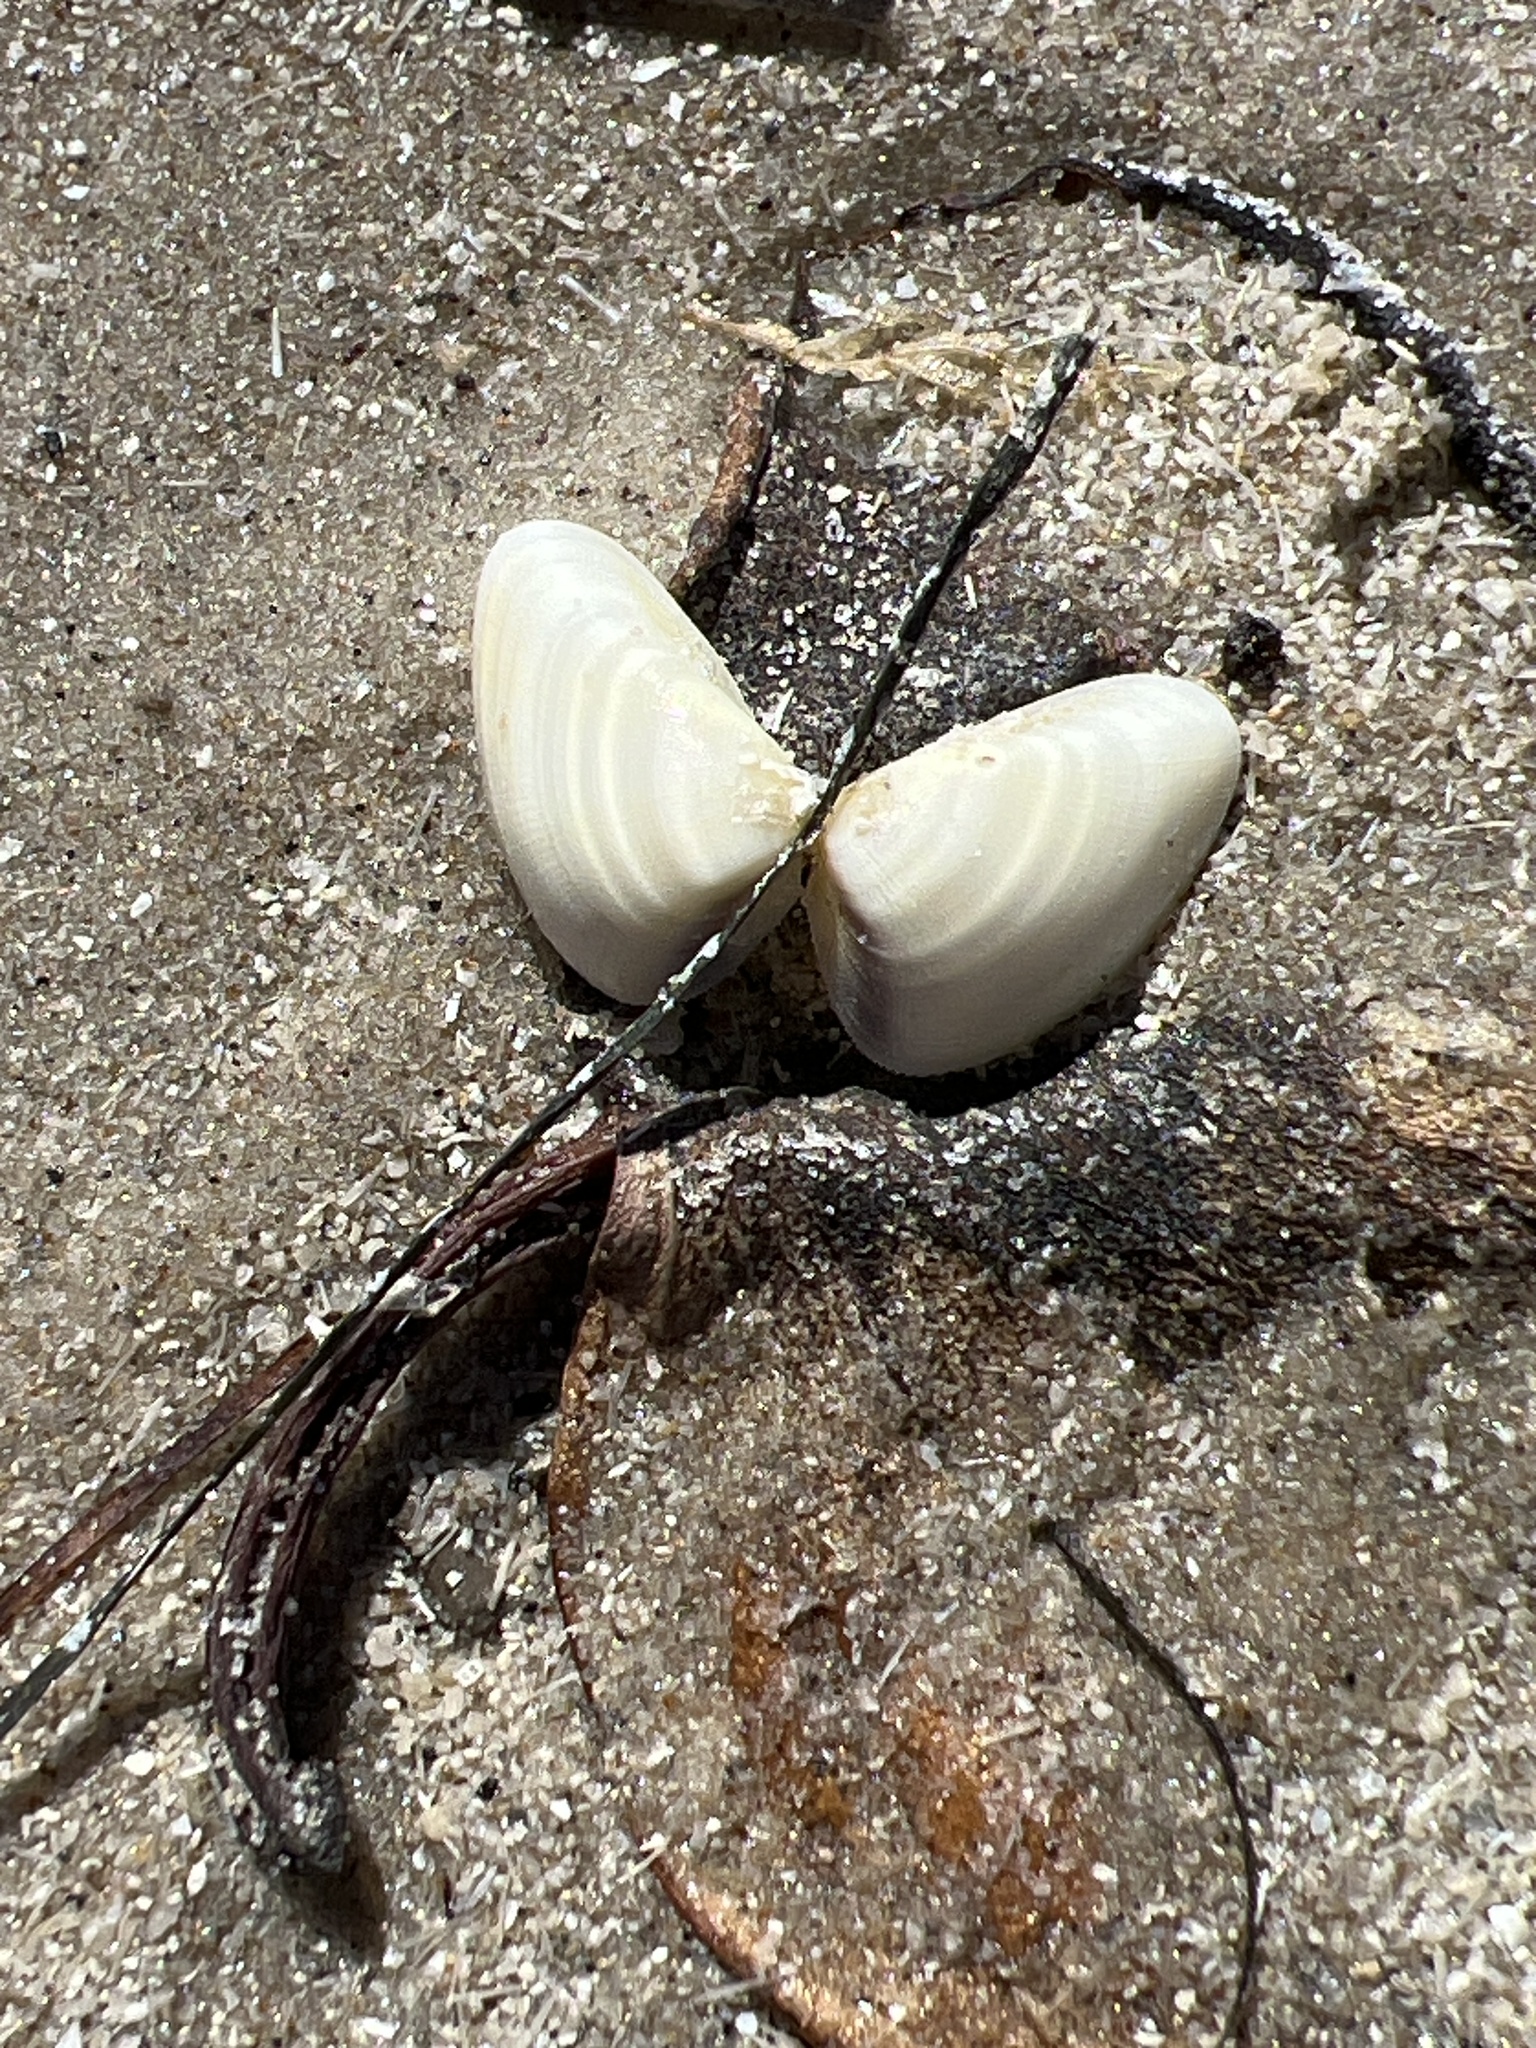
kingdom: Animalia
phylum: Mollusca
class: Bivalvia
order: Cardiida
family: Donacidae
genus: Donax
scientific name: Donax variabilis
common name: Butterfly shell
